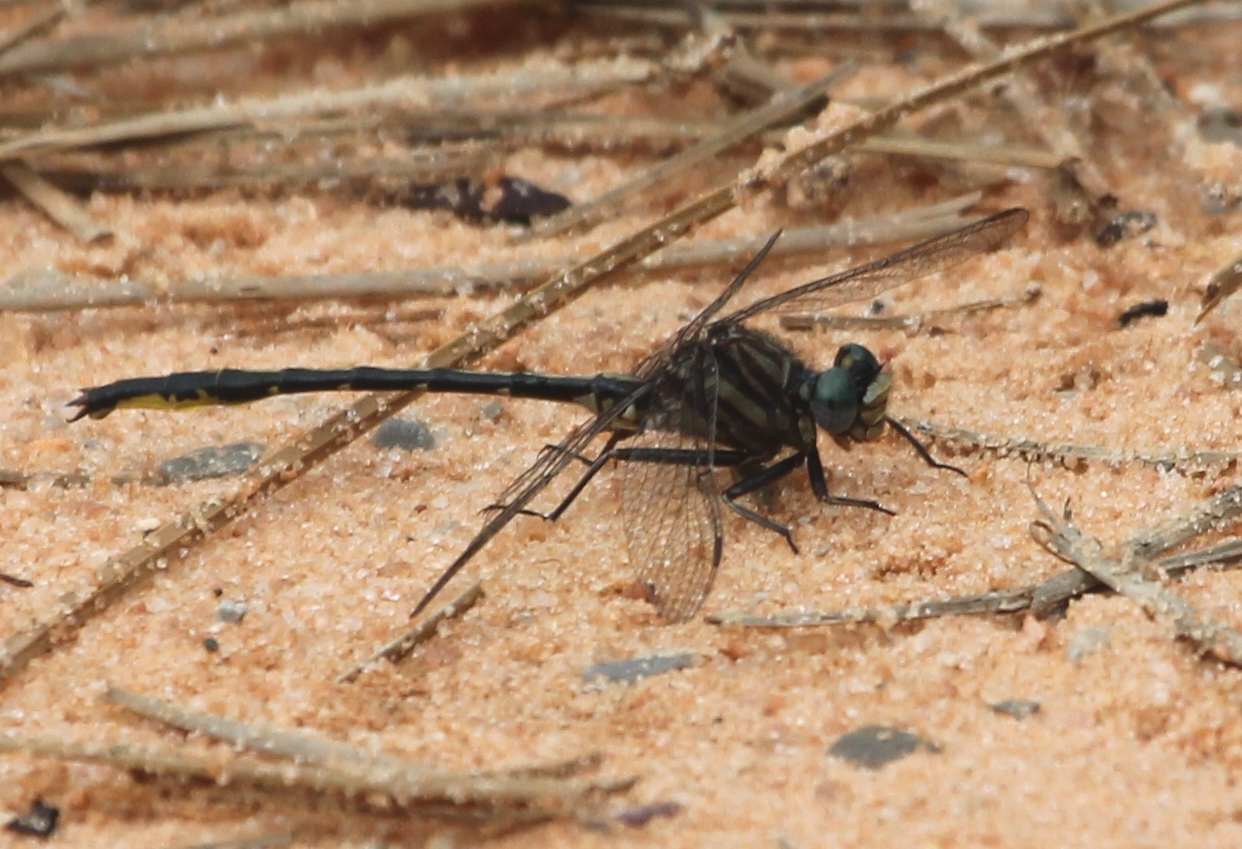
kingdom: Animalia
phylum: Arthropoda
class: Insecta
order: Odonata
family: Gomphidae
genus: Phanogomphus
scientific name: Phanogomphus westfalli
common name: Westfall’s clubtail
